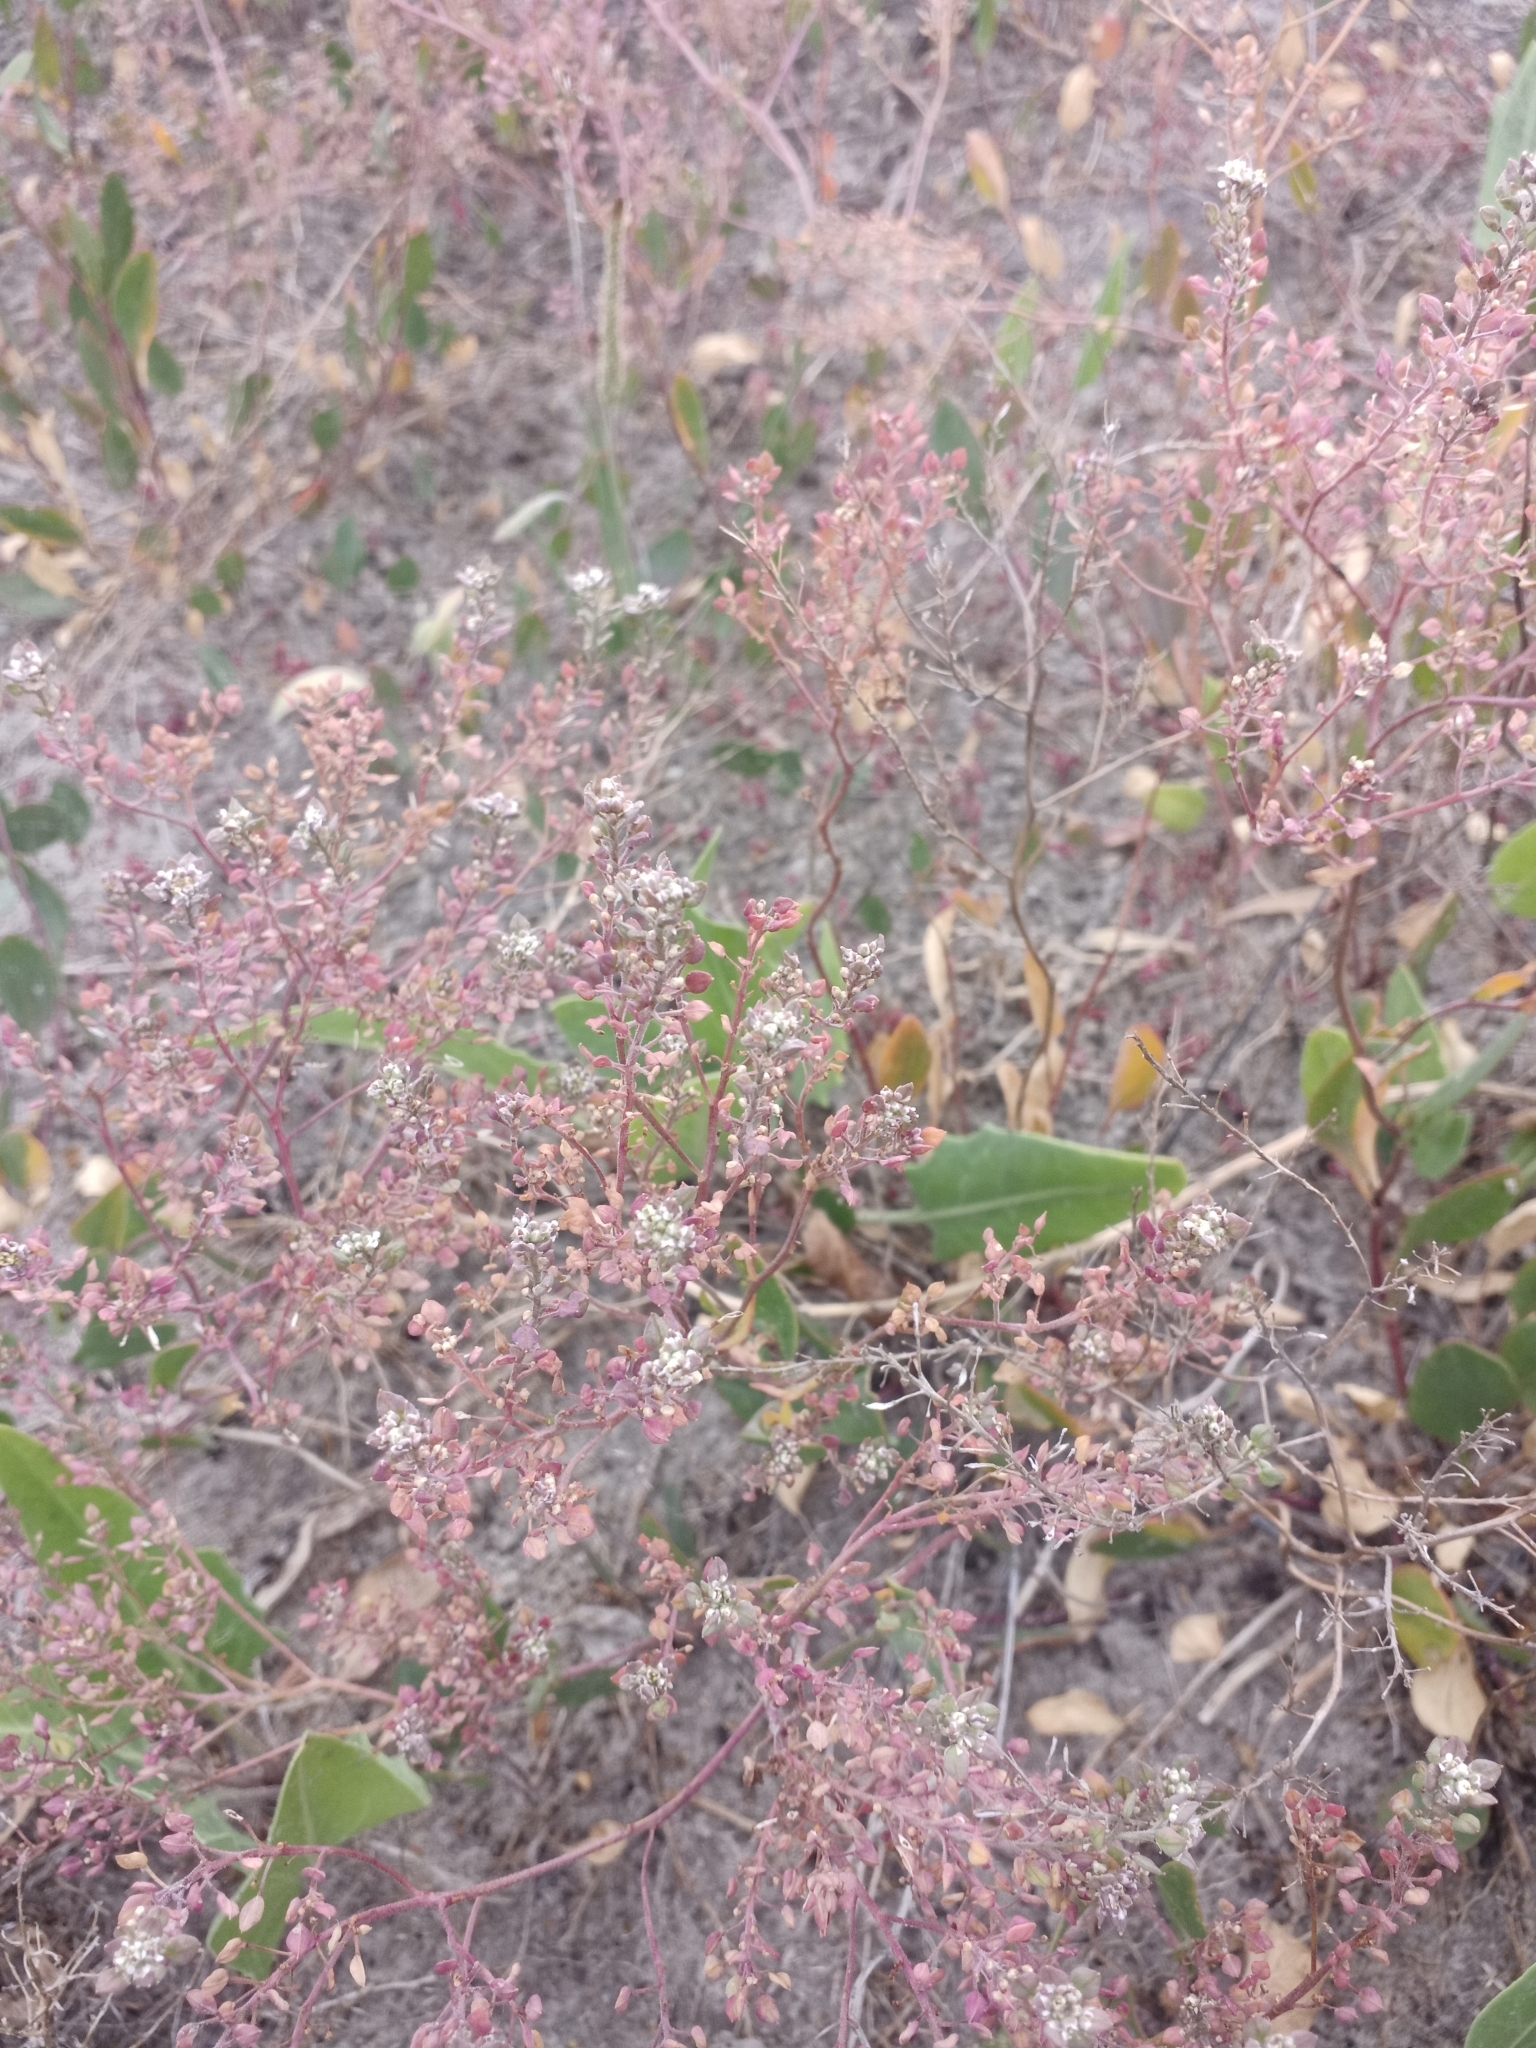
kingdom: Plantae
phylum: Tracheophyta
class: Magnoliopsida
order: Brassicales
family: Brassicaceae
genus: Lepidium
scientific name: Lepidium ruderale
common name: Narrow-leaved pepperwort
